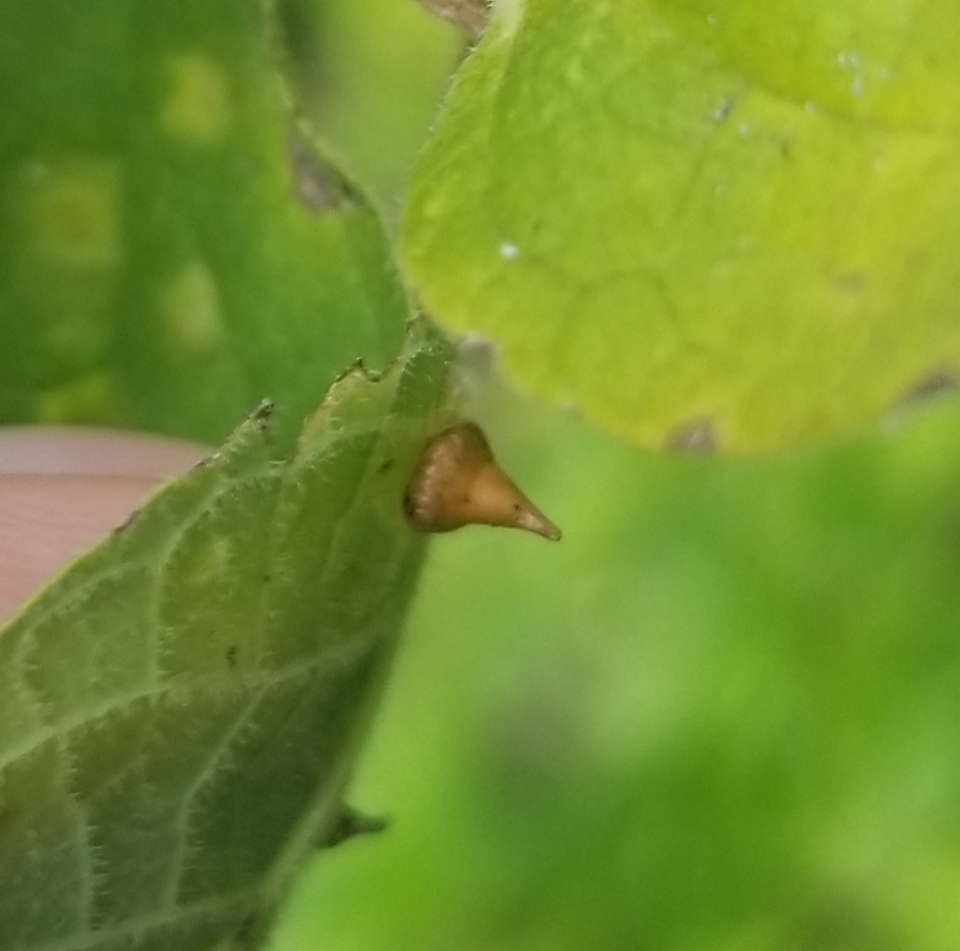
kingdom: Animalia
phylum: Arthropoda
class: Insecta
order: Diptera
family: Cecidomyiidae
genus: Celticecis
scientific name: Celticecis spiniformis
